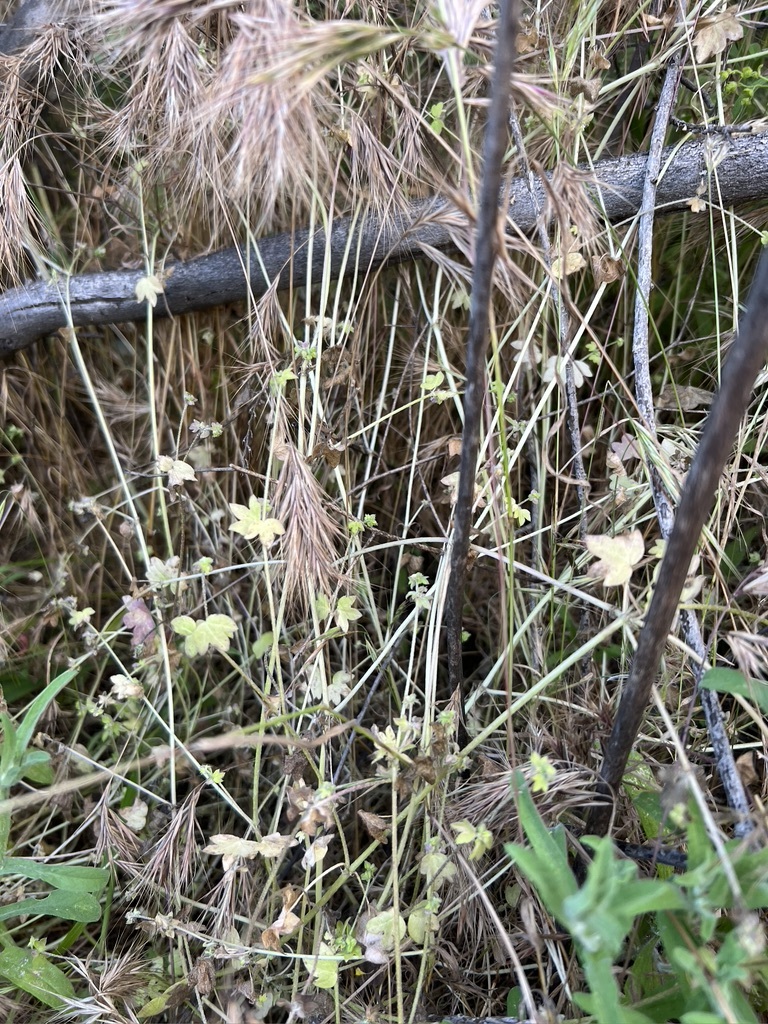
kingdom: Plantae
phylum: Tracheophyta
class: Magnoliopsida
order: Apiales
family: Apiaceae
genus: Bowlesia
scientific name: Bowlesia incana
